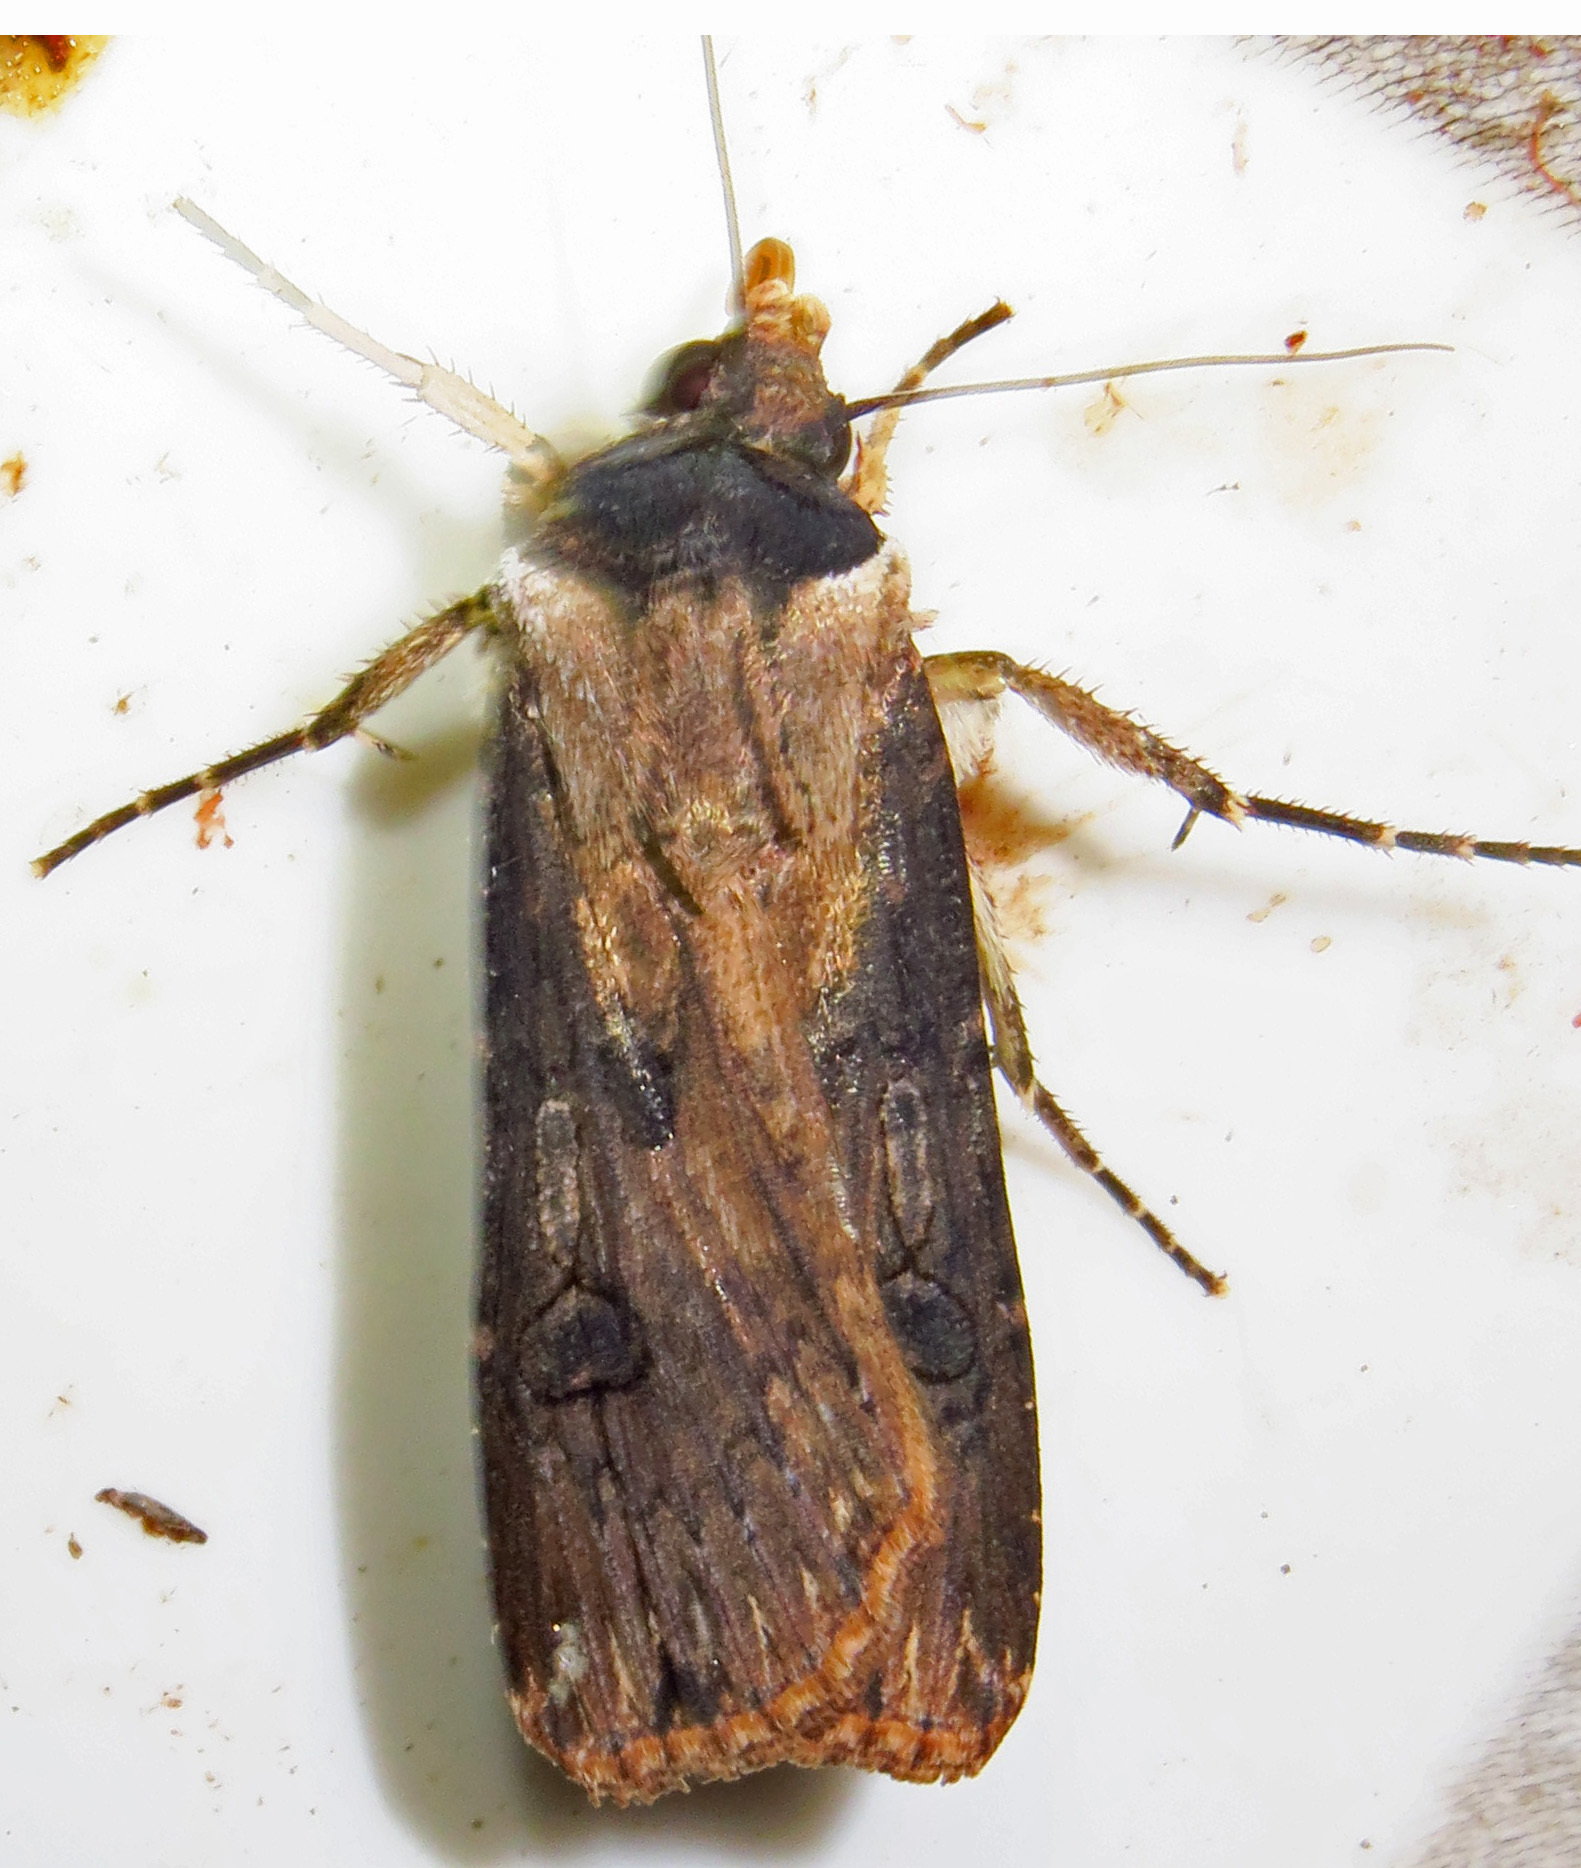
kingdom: Animalia
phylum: Arthropoda
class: Insecta
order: Lepidoptera
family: Noctuidae
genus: Agrotis
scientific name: Agrotis malefida
